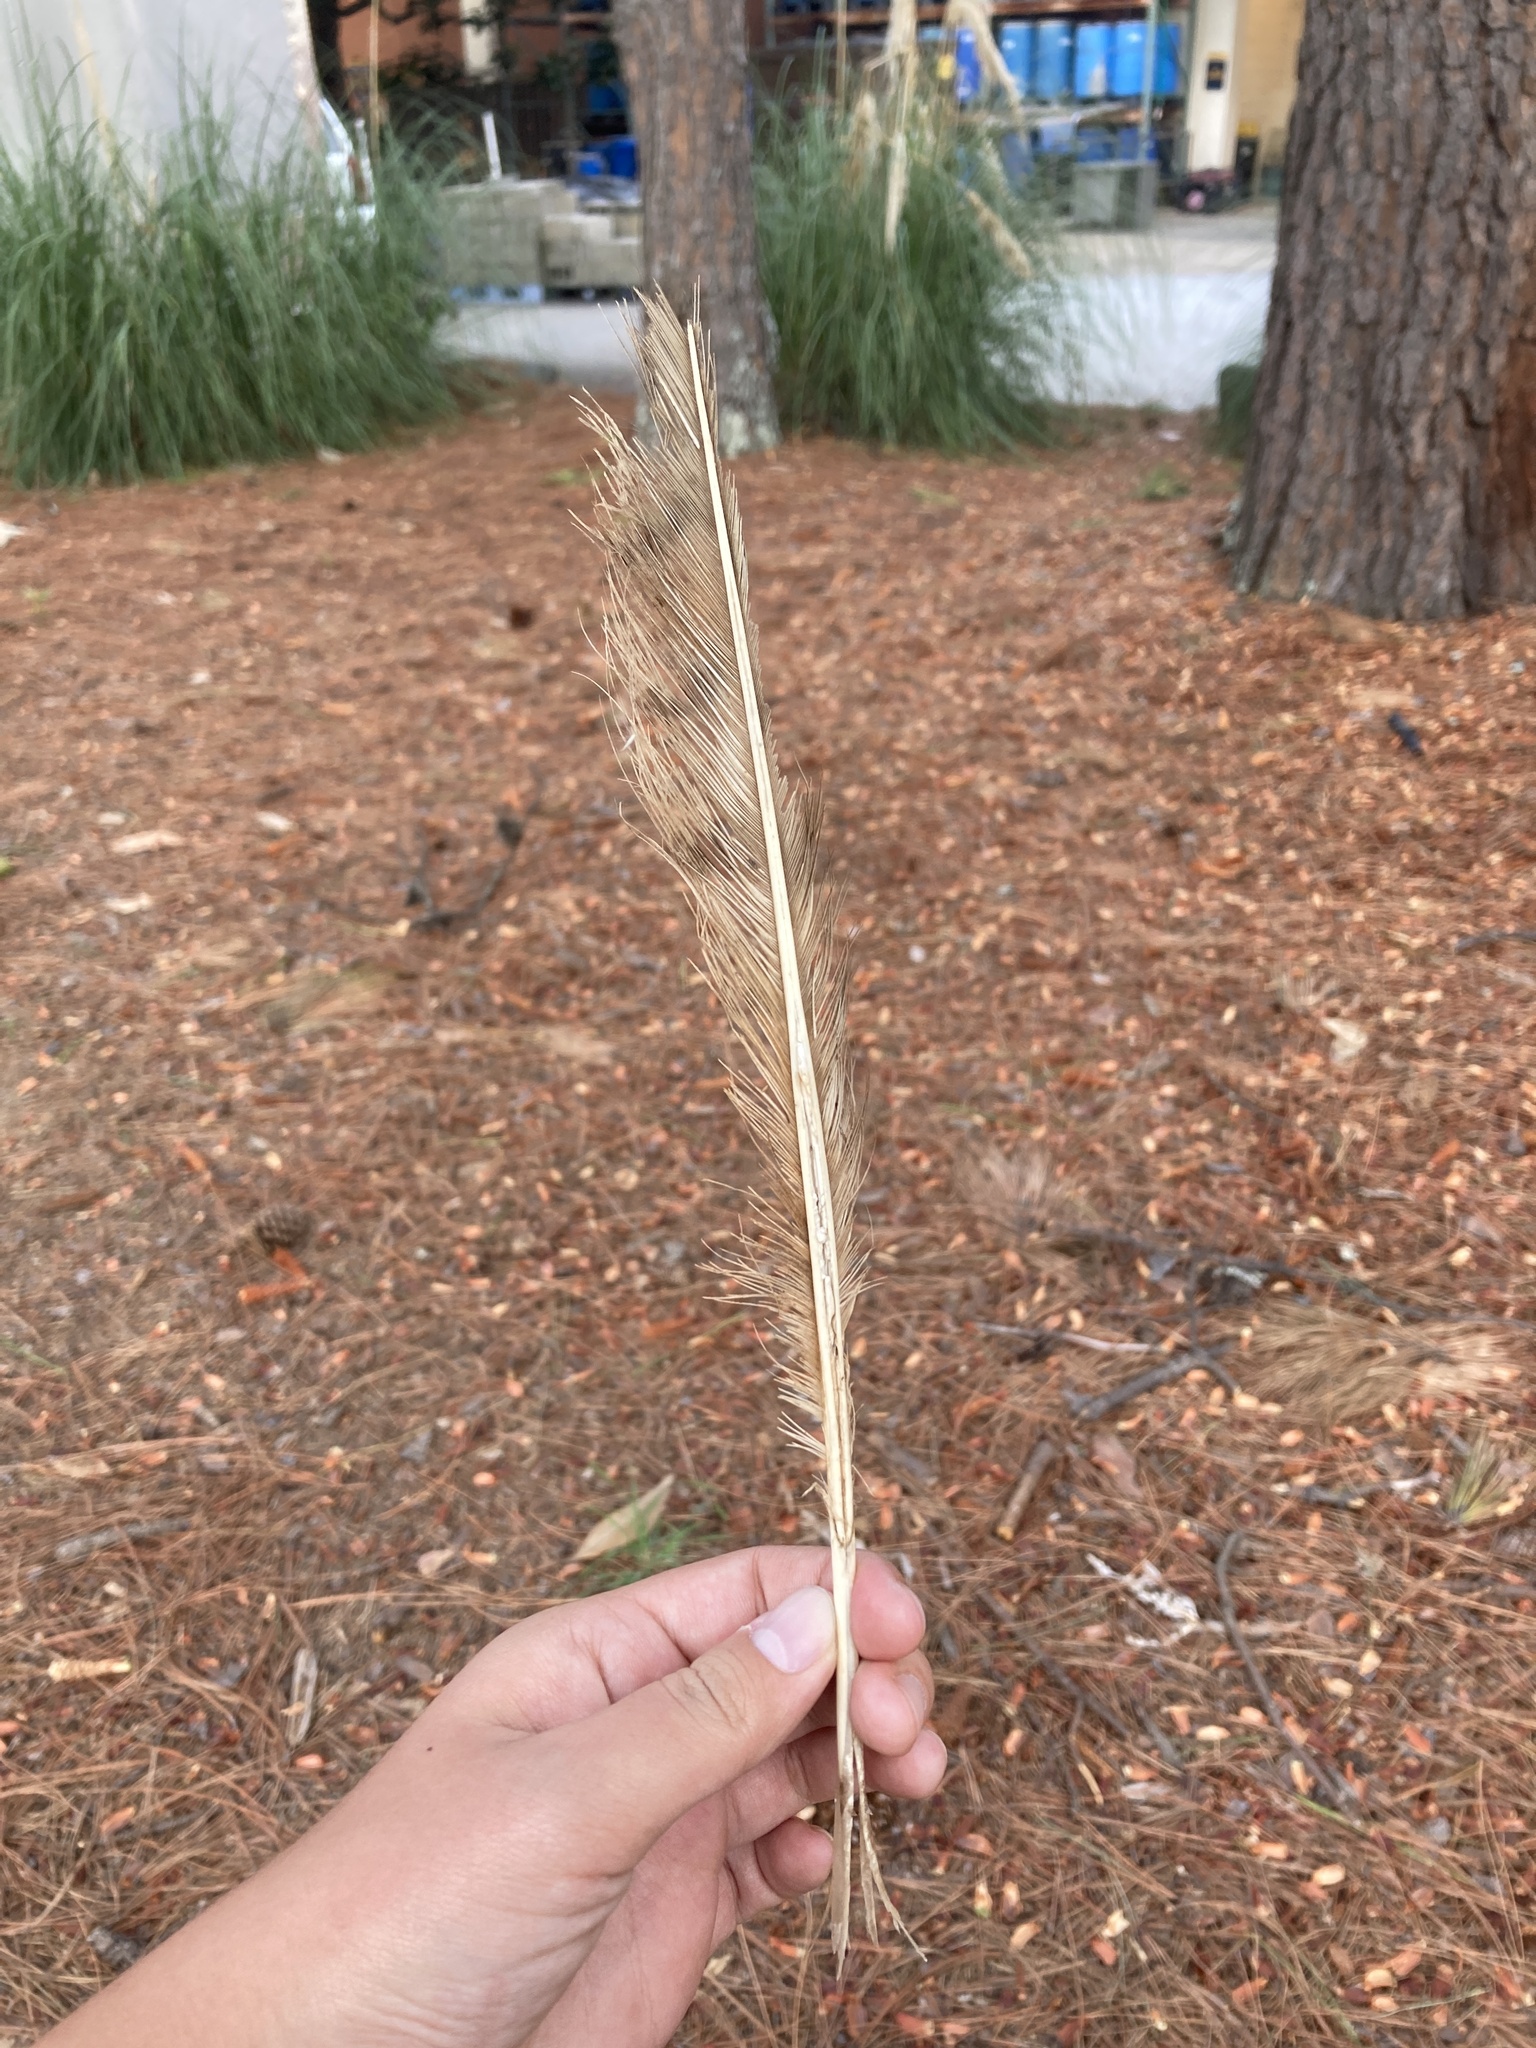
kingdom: Animalia
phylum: Chordata
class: Aves
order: Accipitriformes
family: Accipitridae
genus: Buteo
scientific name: Buteo jamaicensis
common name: Red-tailed hawk
